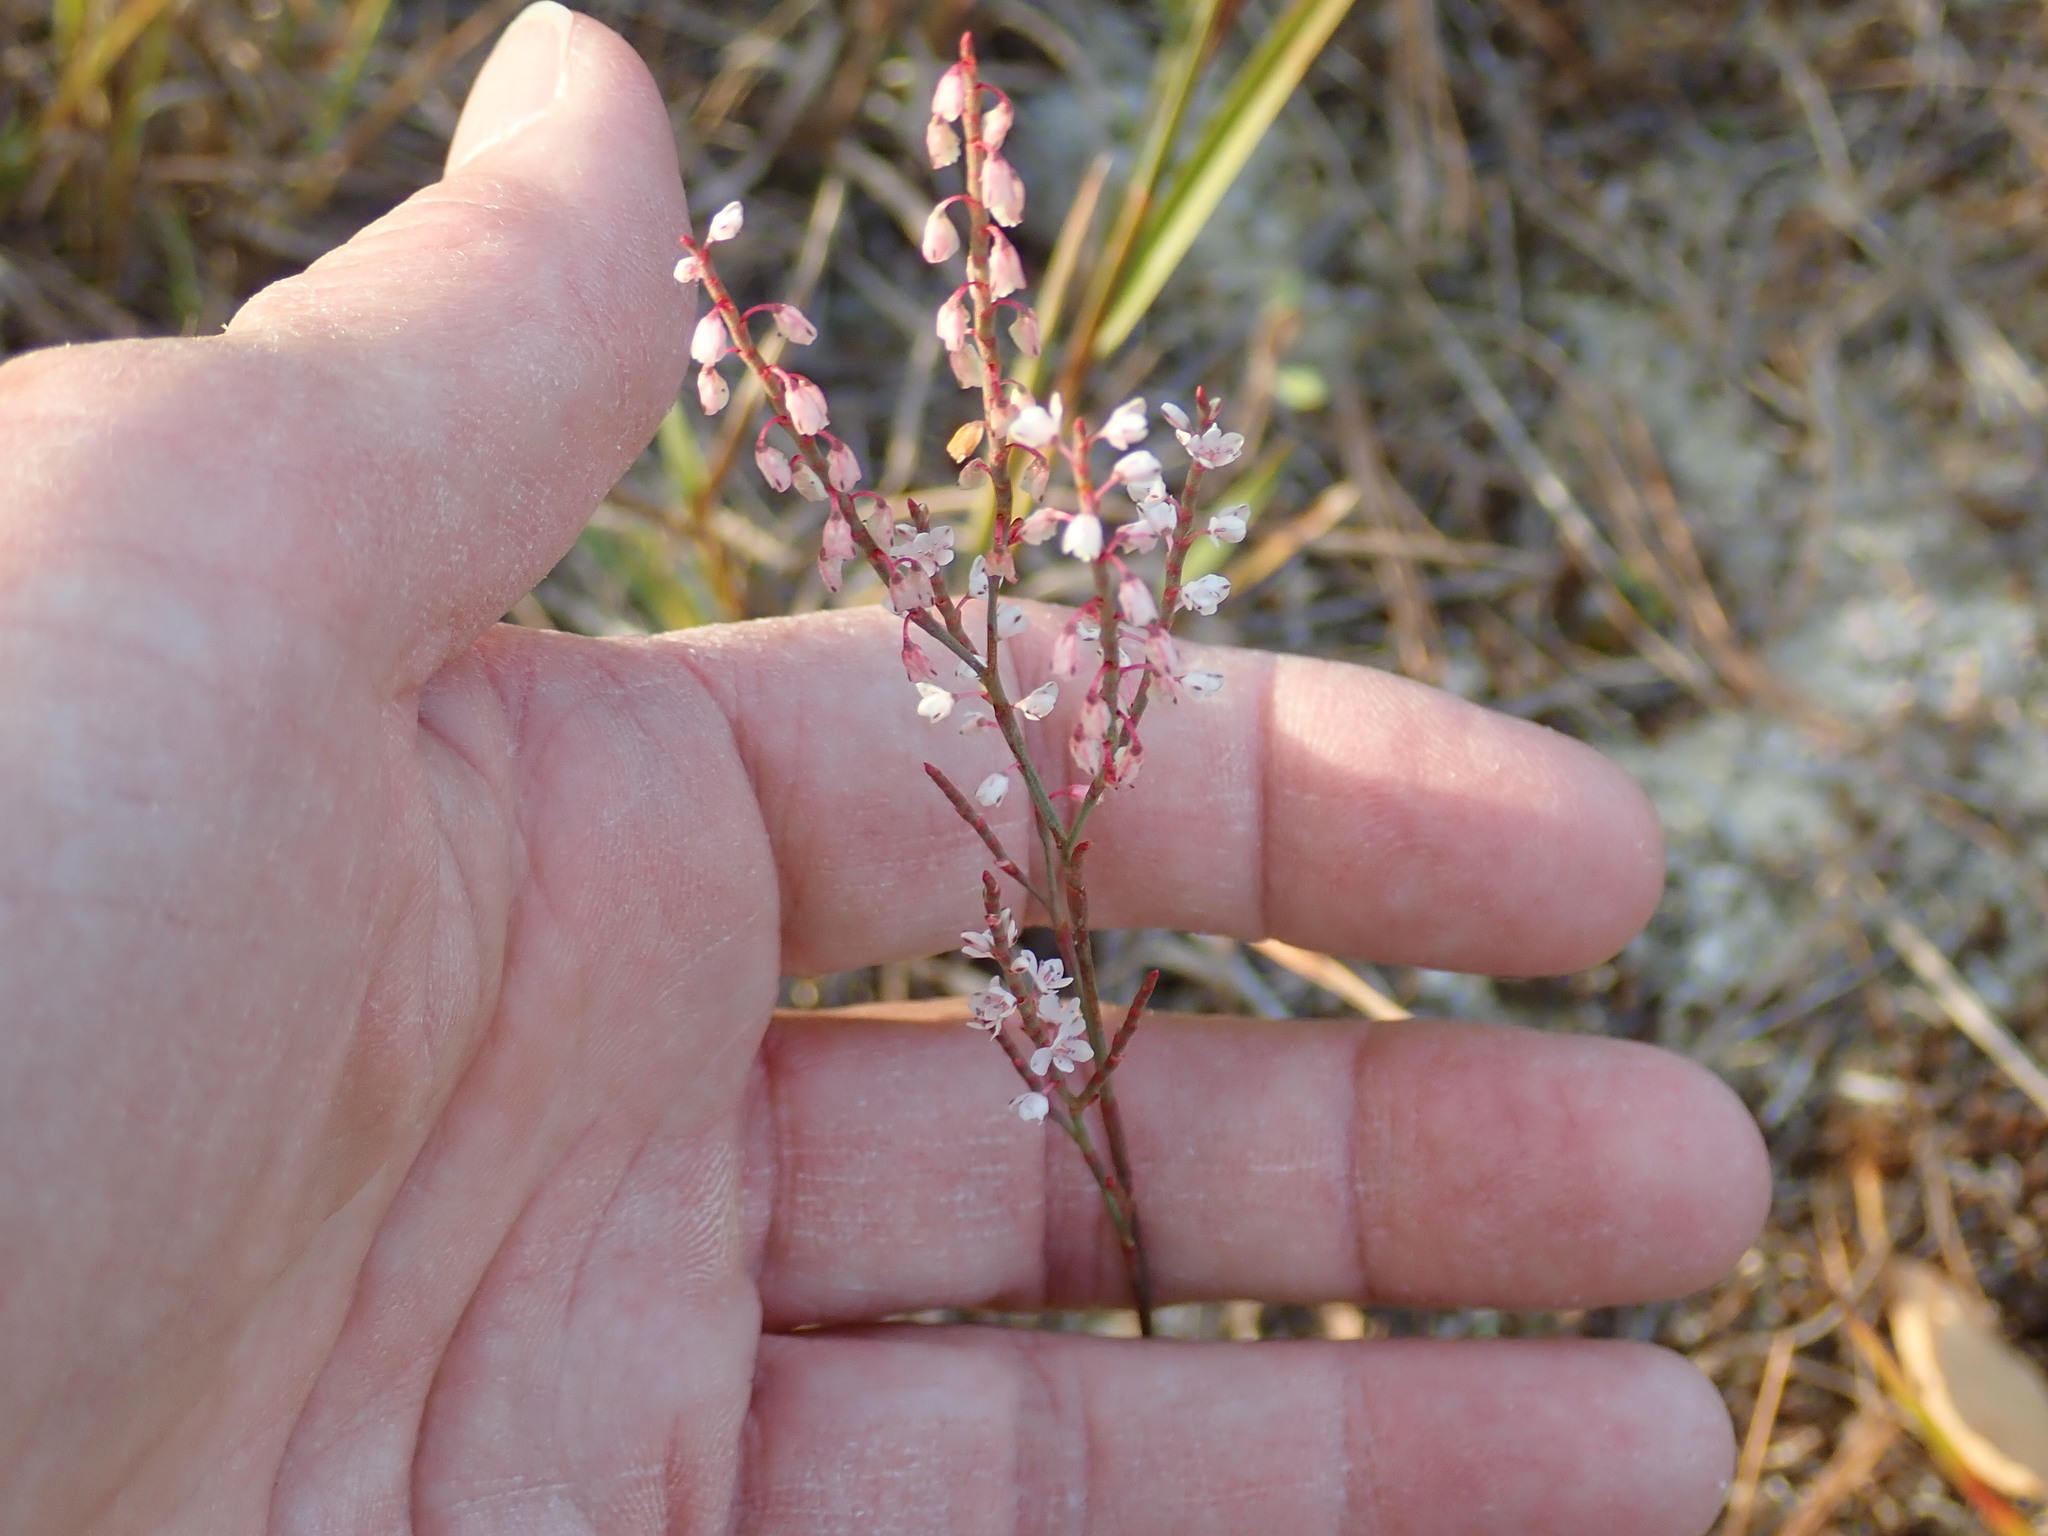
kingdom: Plantae
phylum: Tracheophyta
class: Magnoliopsida
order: Caryophyllales
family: Polygonaceae
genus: Polygonella
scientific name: Polygonella articulata
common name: Coastal jointweed
